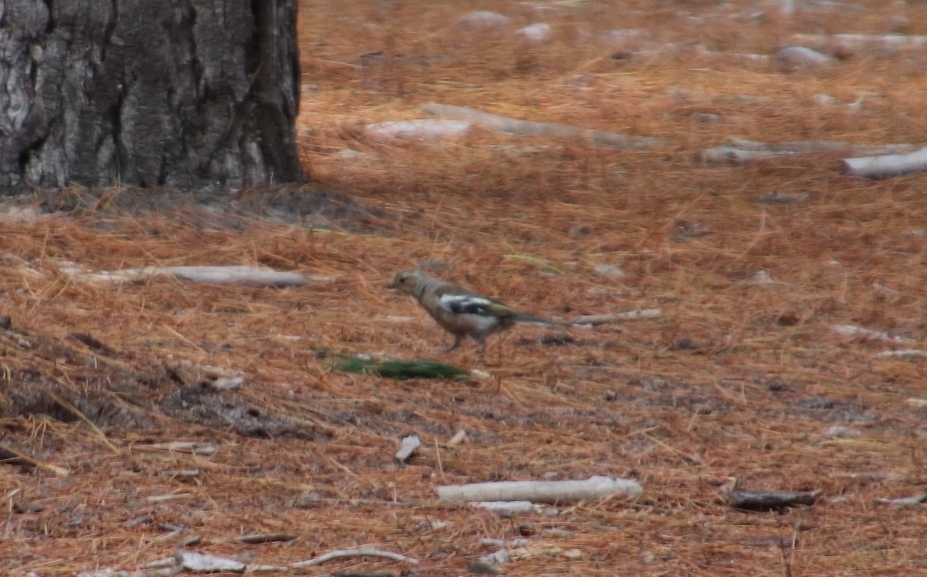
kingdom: Animalia
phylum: Chordata
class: Aves
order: Passeriformes
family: Fringillidae
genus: Fringilla
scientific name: Fringilla coelebs
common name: Common chaffinch
